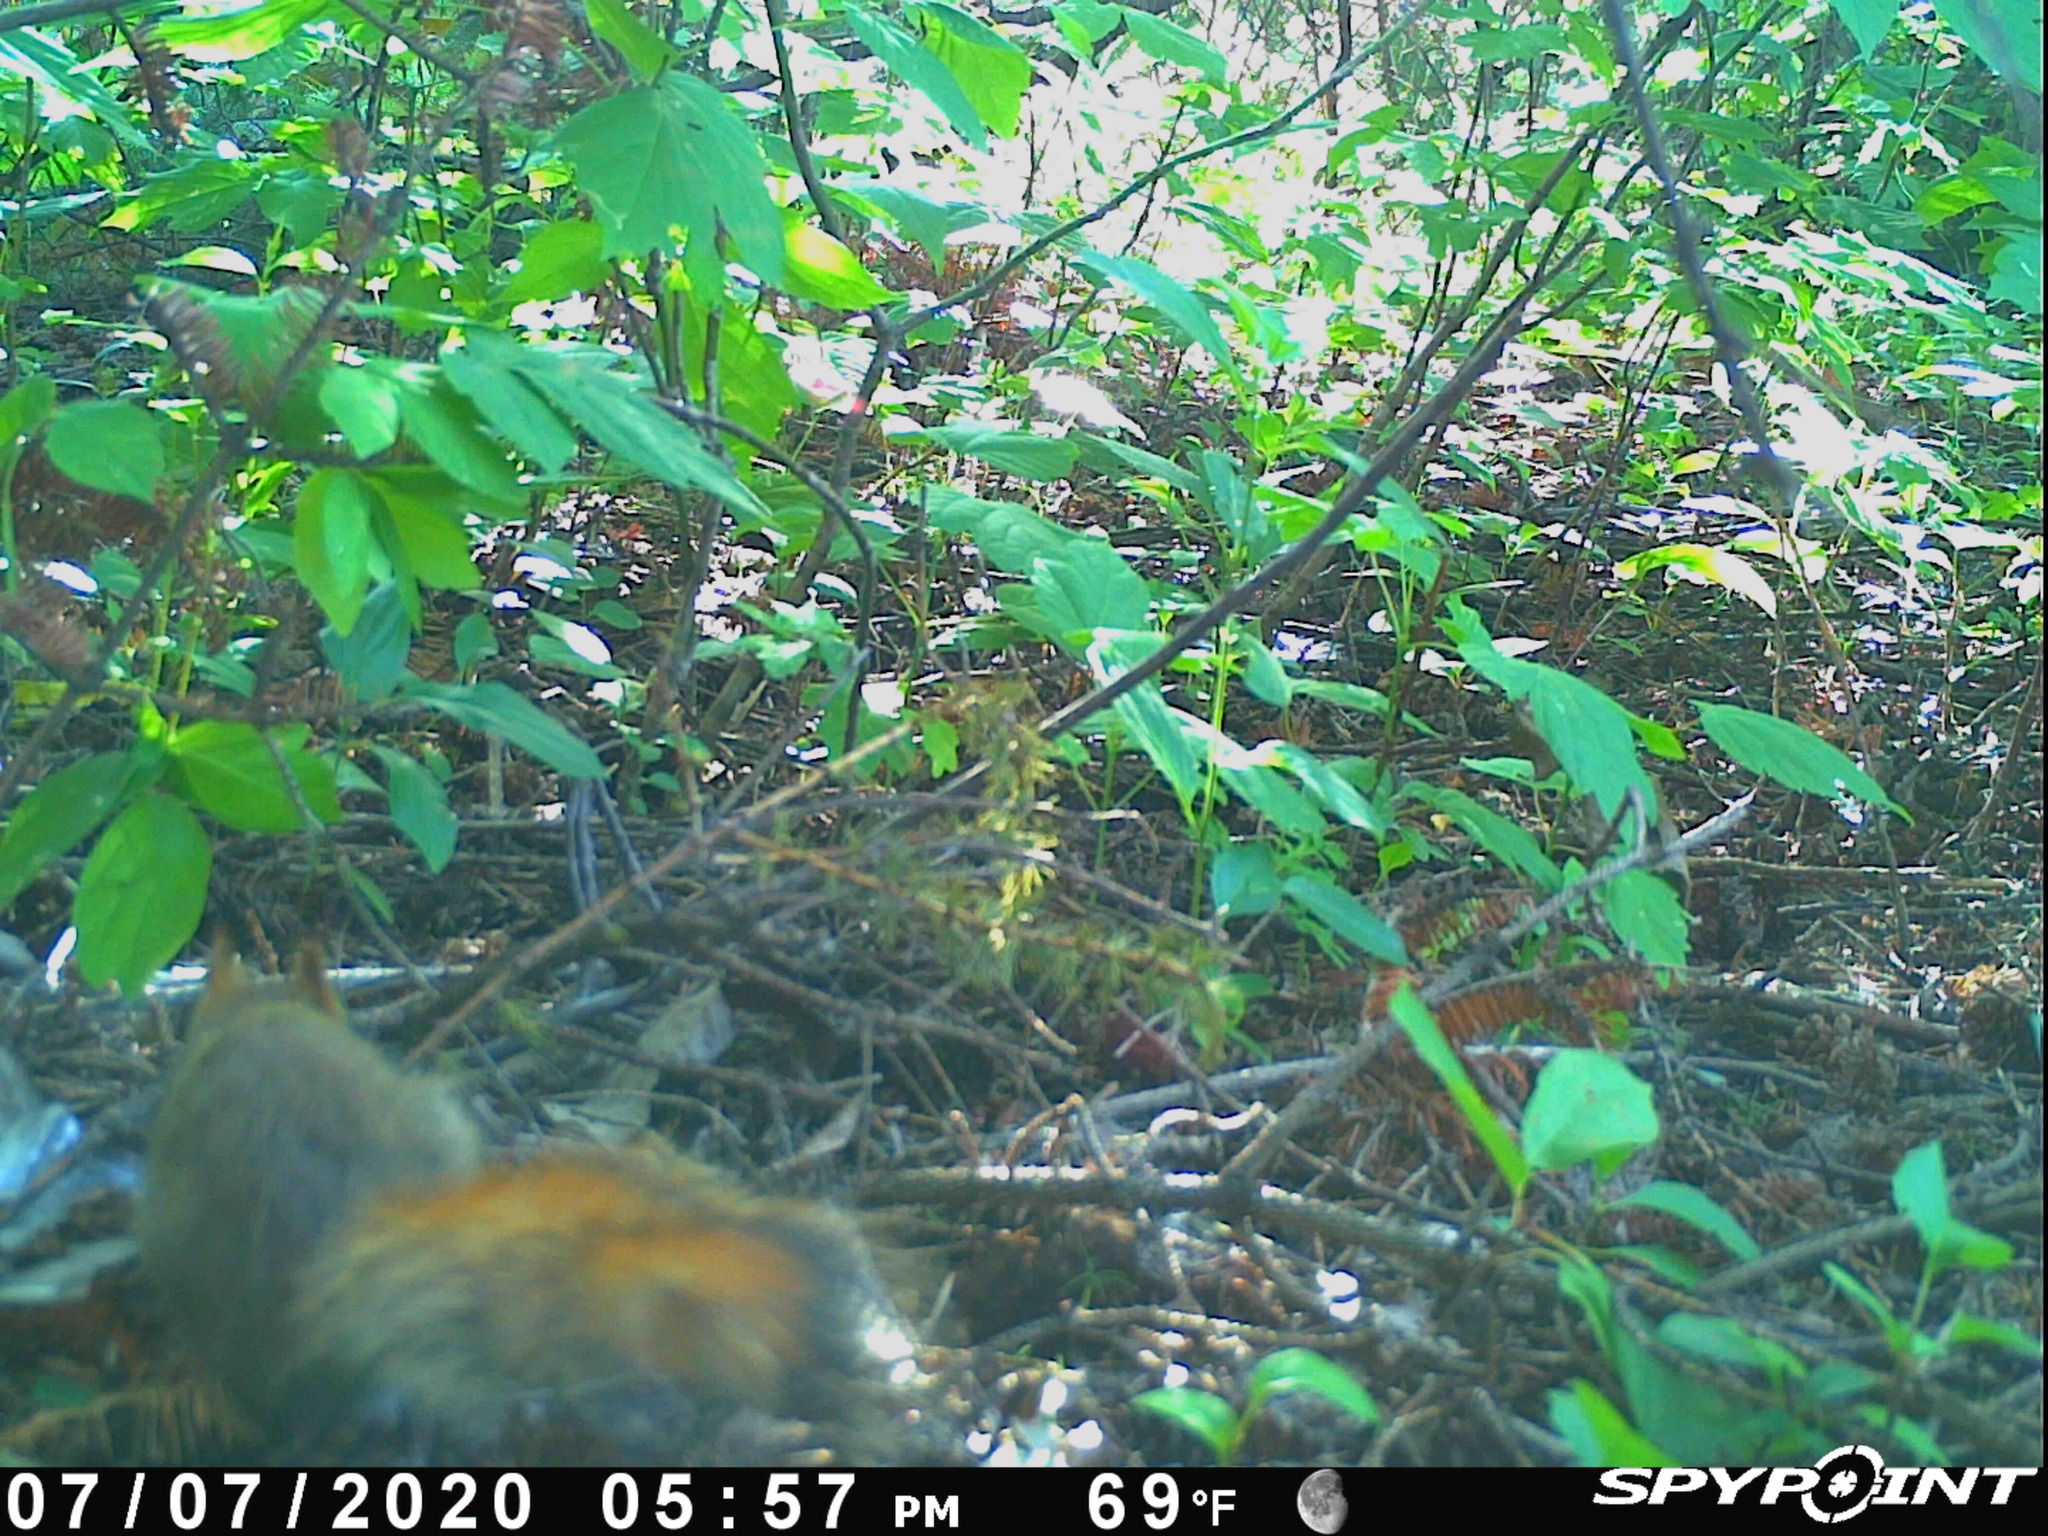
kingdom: Animalia
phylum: Chordata
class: Mammalia
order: Rodentia
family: Sciuridae
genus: Tamiasciurus
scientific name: Tamiasciurus hudsonicus
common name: Red squirrel
